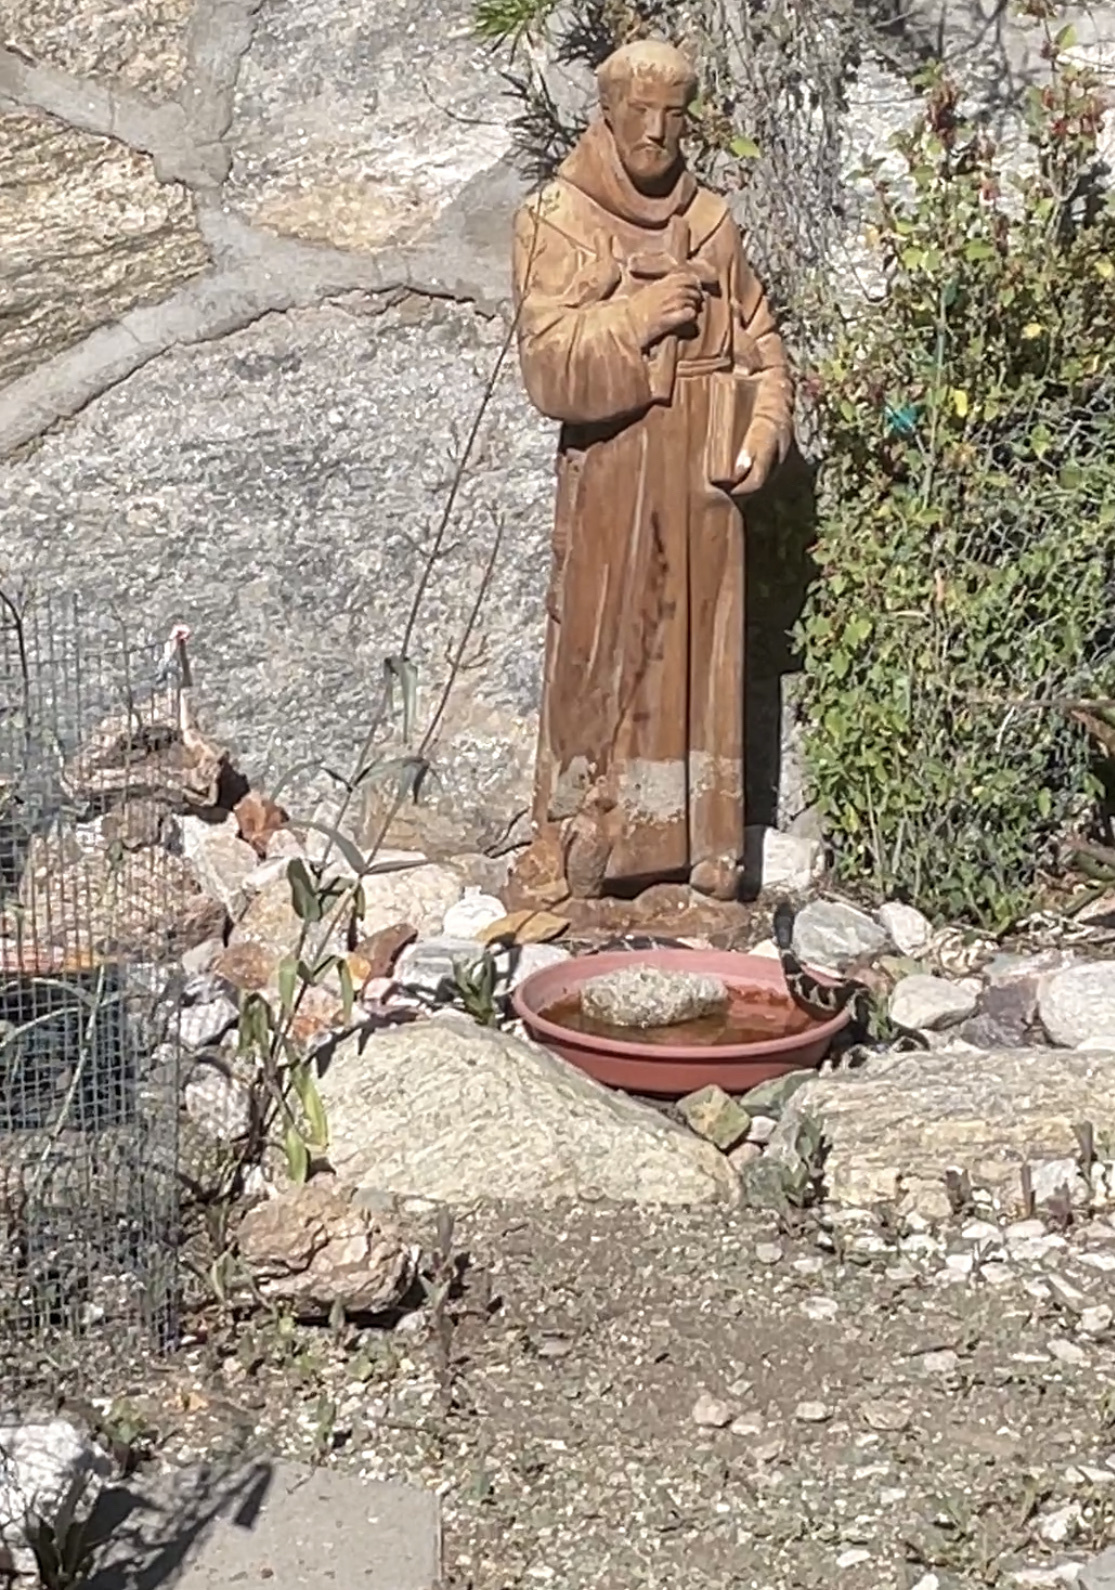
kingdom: Animalia
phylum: Chordata
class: Squamata
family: Colubridae
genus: Lampropeltis
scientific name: Lampropeltis californiae
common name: California kingsnake
